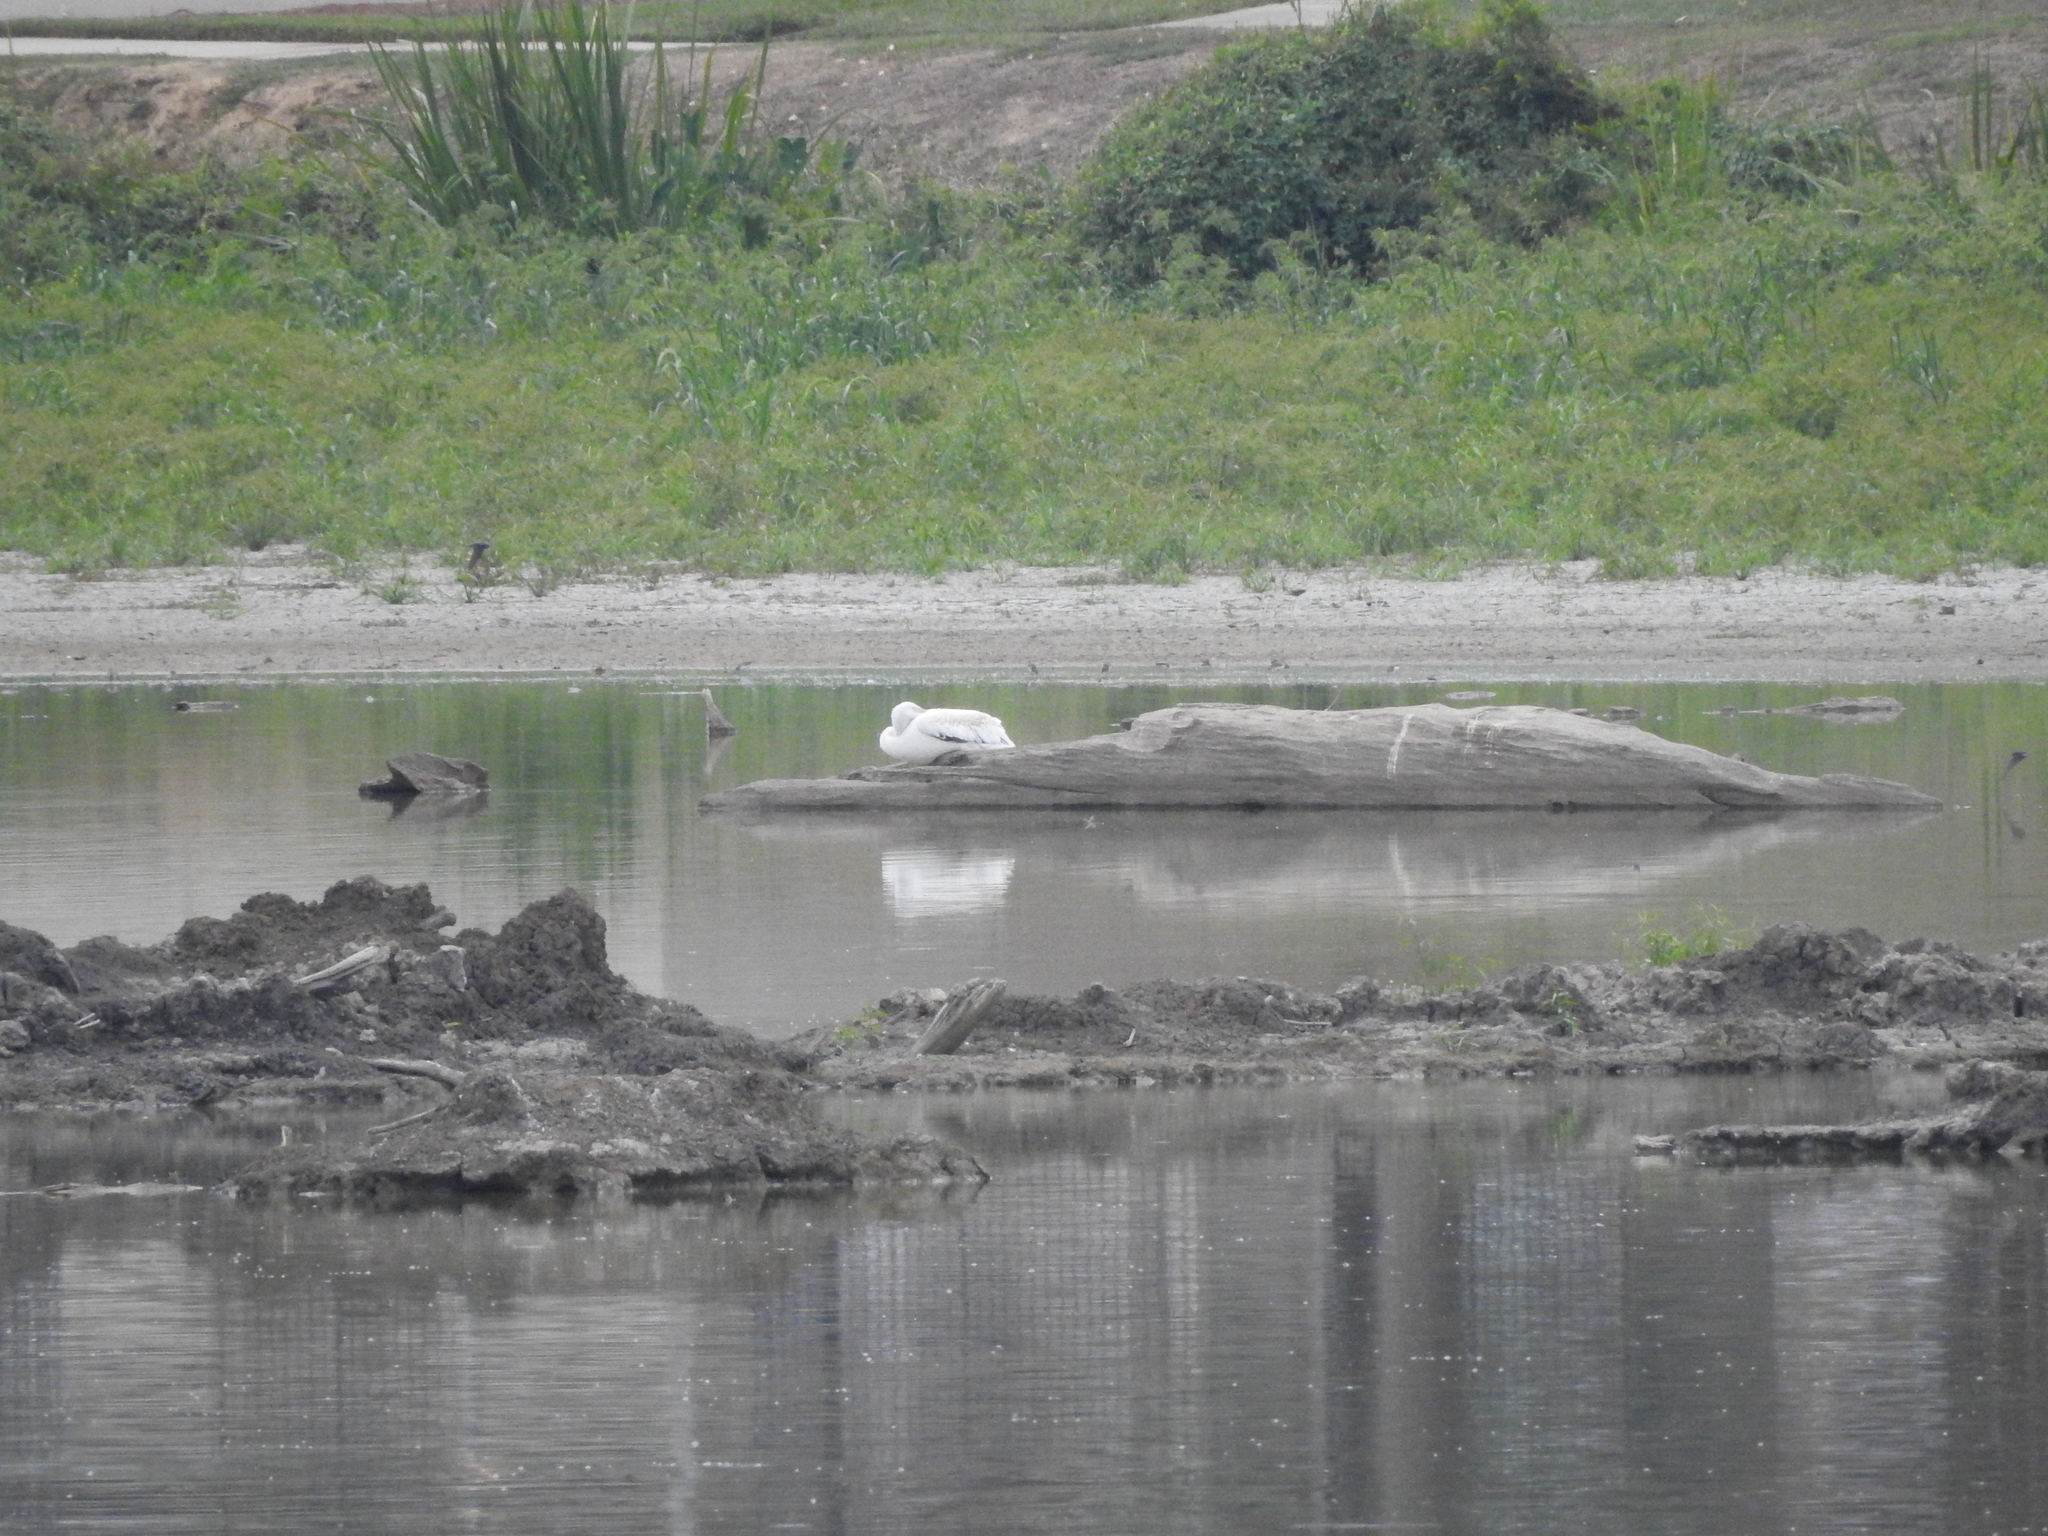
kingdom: Animalia
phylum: Chordata
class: Aves
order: Pelecaniformes
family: Pelecanidae
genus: Pelecanus
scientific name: Pelecanus erythrorhynchos
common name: American white pelican
